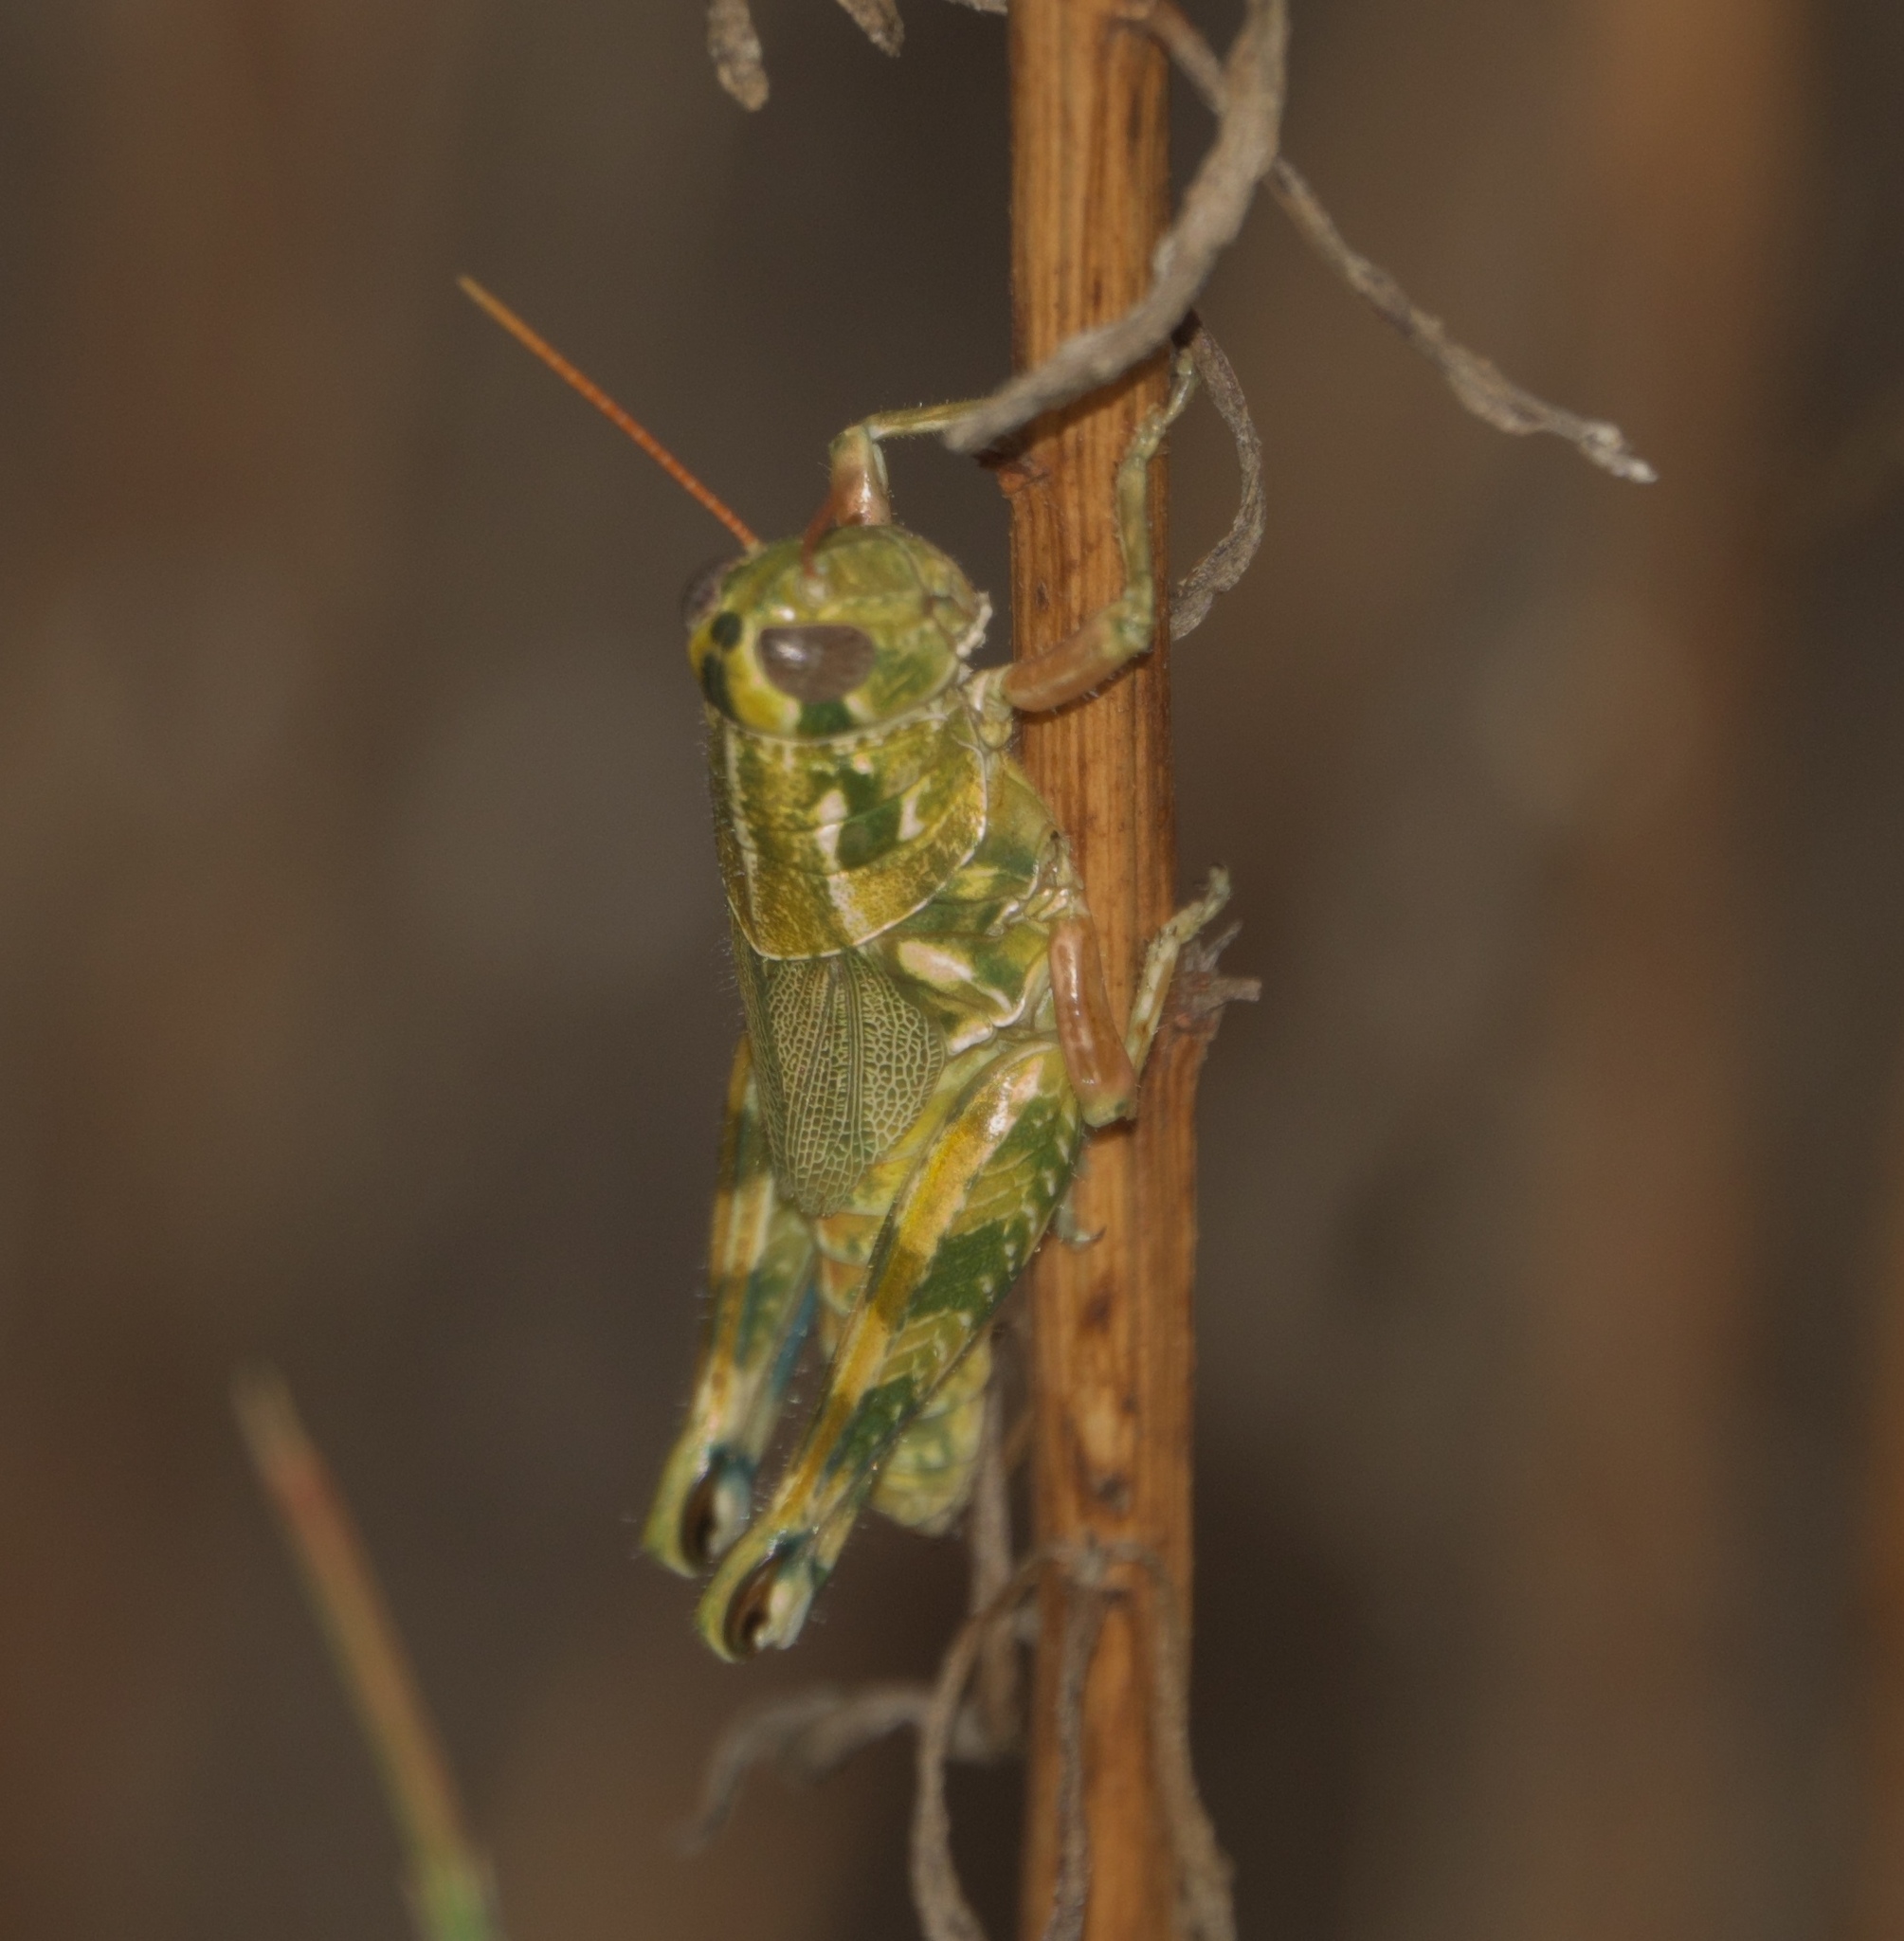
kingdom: Animalia
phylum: Arthropoda
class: Insecta
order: Orthoptera
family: Acrididae
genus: Campylacantha
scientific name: Campylacantha olivacea
